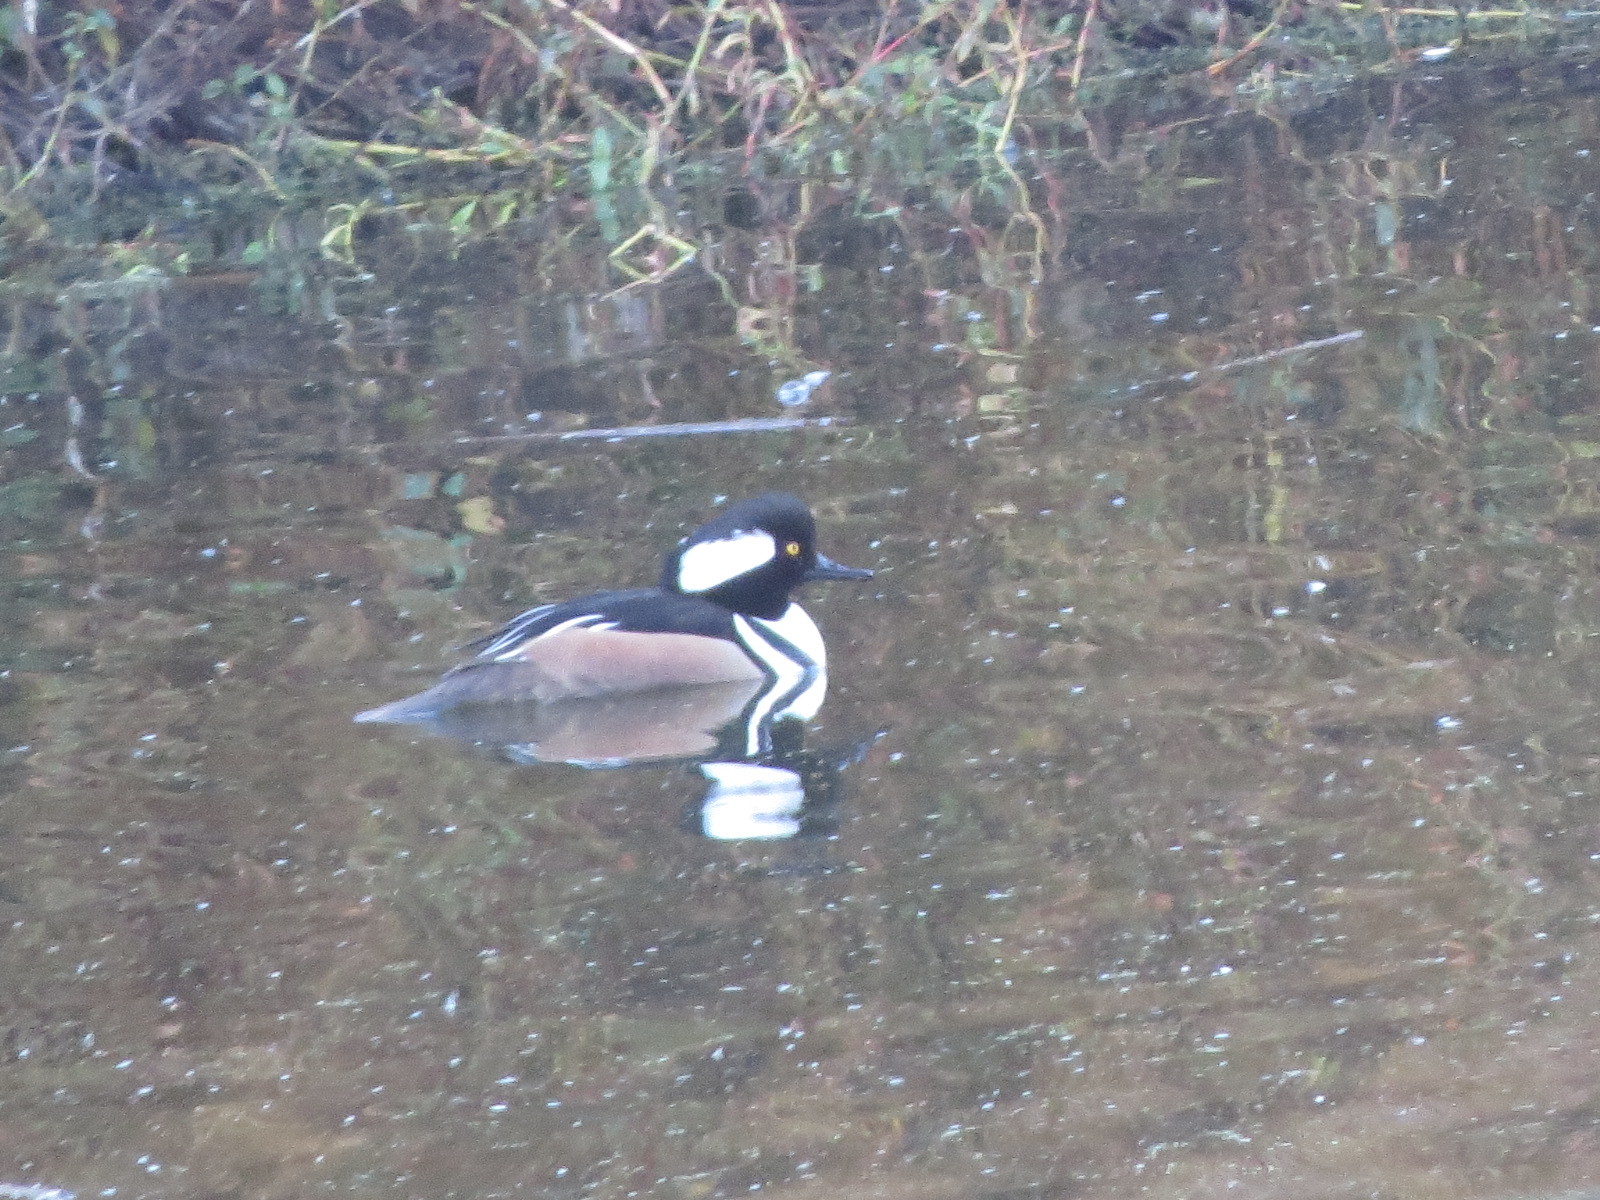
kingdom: Animalia
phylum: Chordata
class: Aves
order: Anseriformes
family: Anatidae
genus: Lophodytes
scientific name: Lophodytes cucullatus
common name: Hooded merganser
